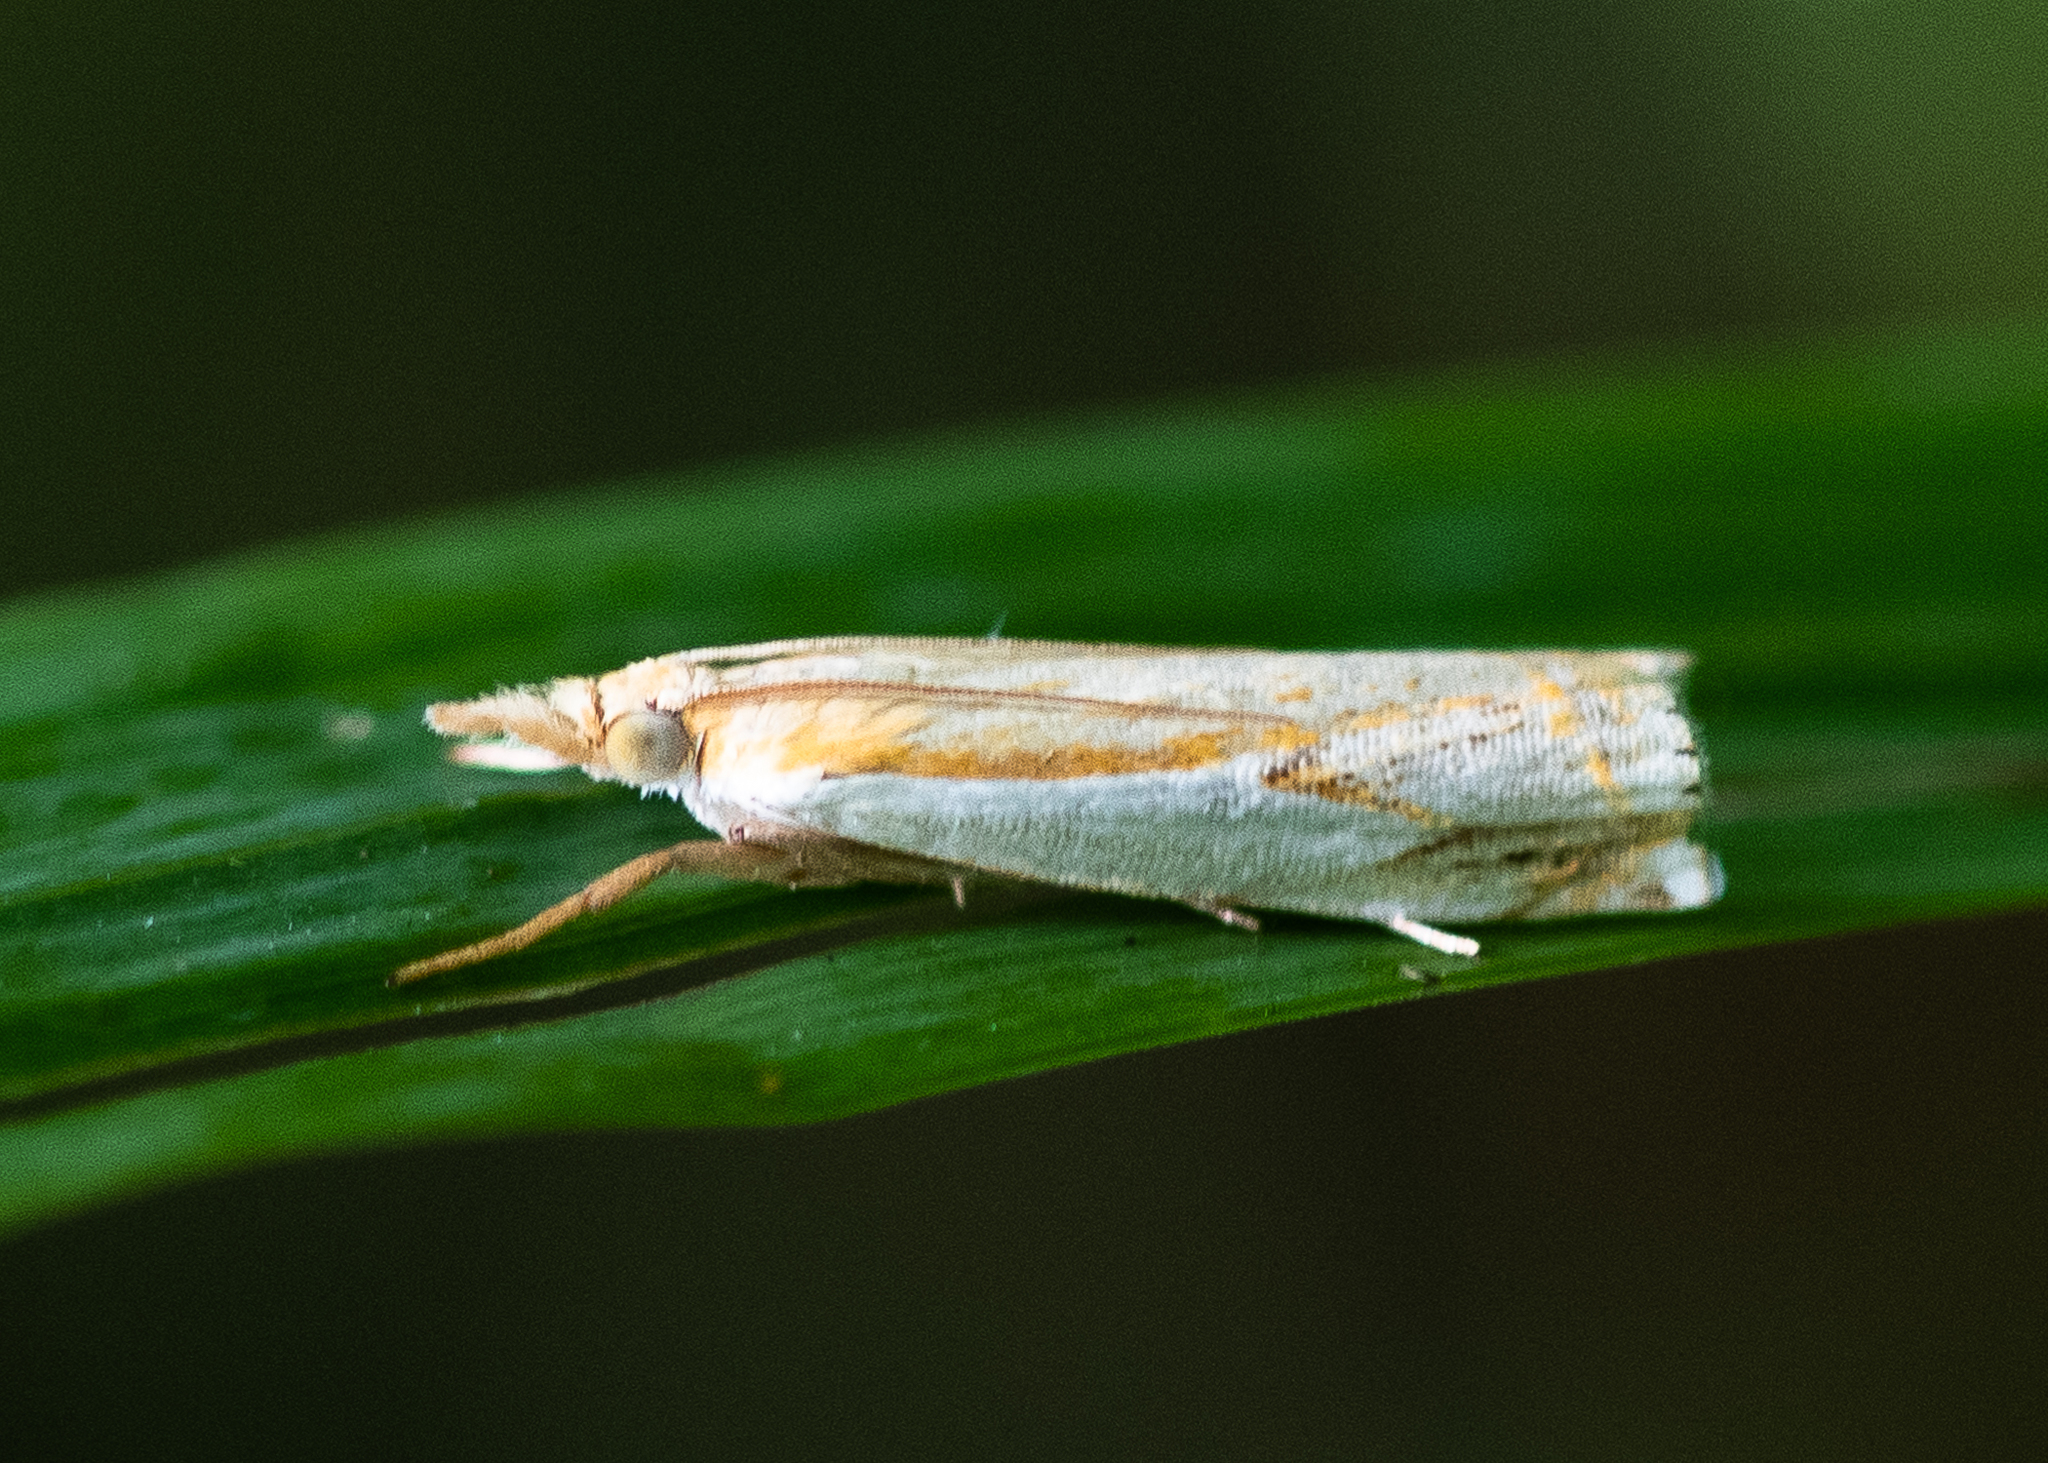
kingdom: Animalia
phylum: Arthropoda
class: Insecta
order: Lepidoptera
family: Crambidae
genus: Crambus
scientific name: Crambus agitatellus
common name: Double-banded grass-veneer
